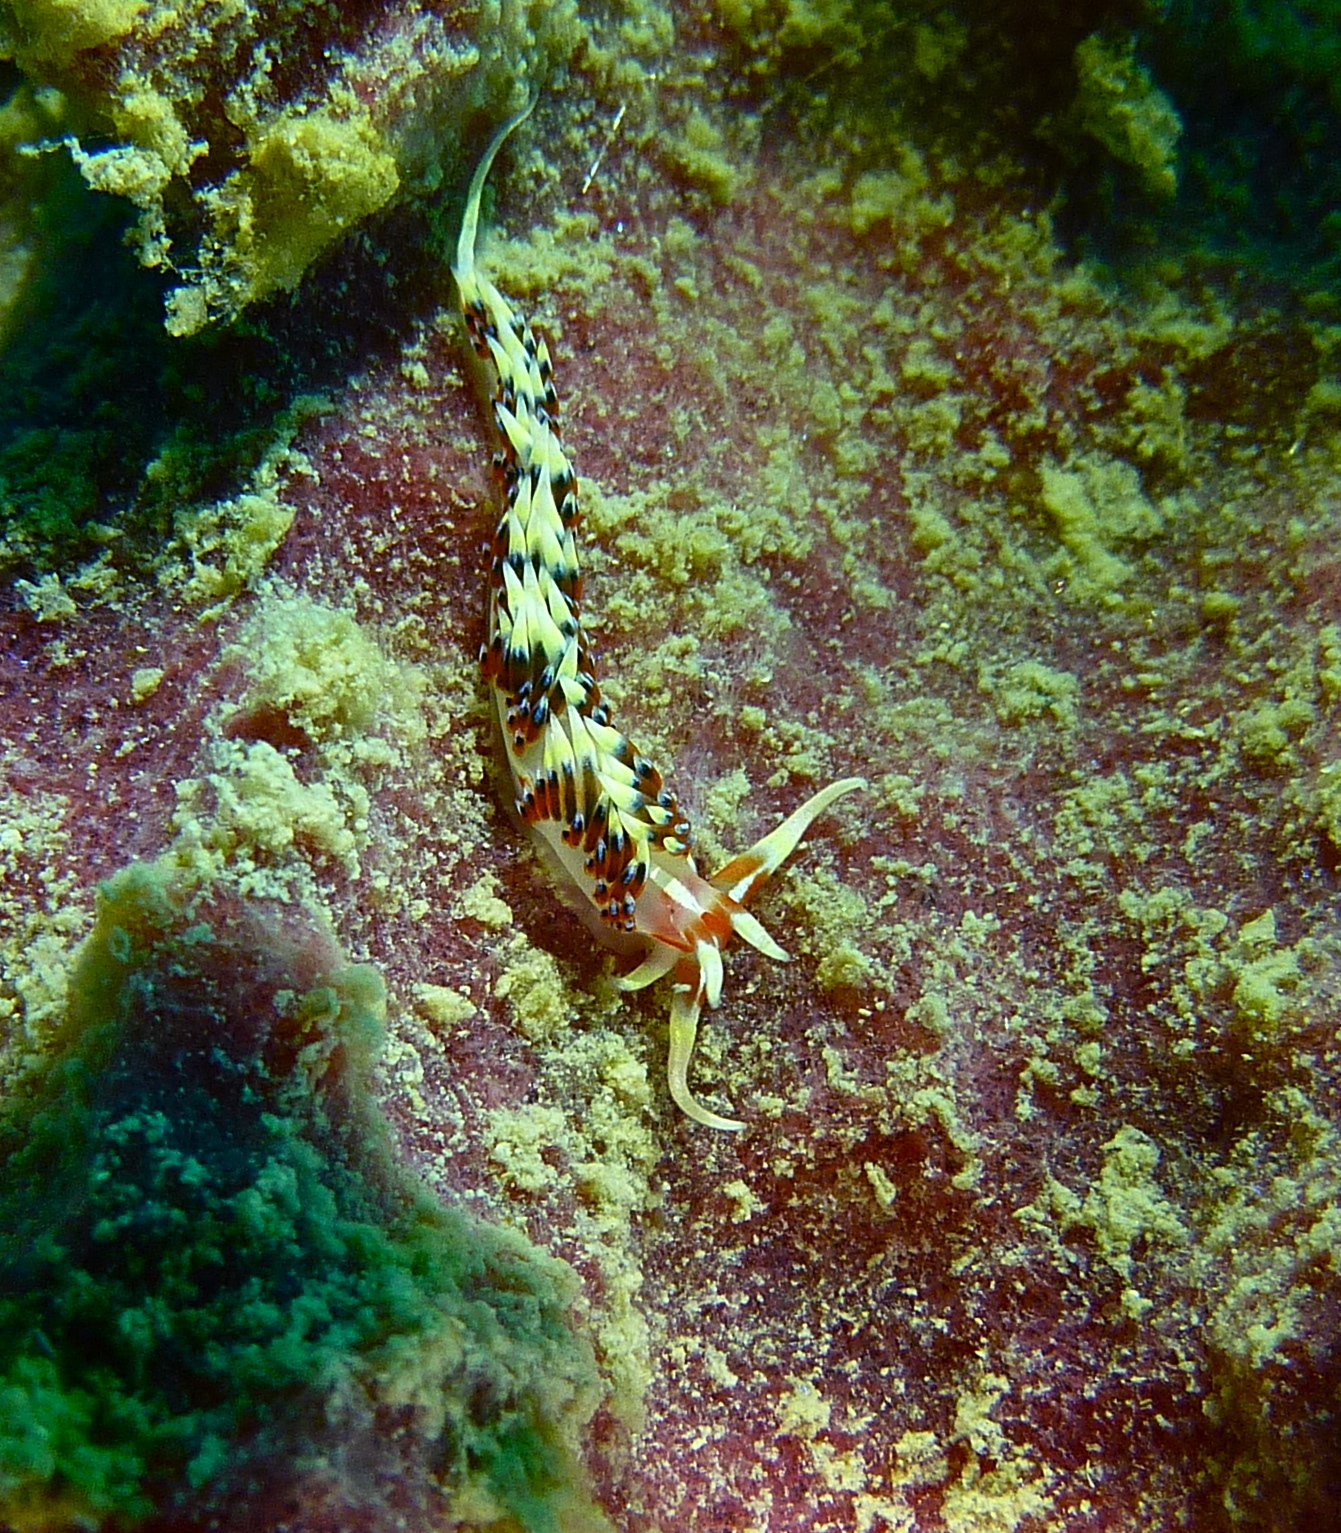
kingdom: Animalia
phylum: Mollusca
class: Gastropoda
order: Nudibranchia
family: Facelinidae
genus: Caloria
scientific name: Caloria indica
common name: Sea slug
